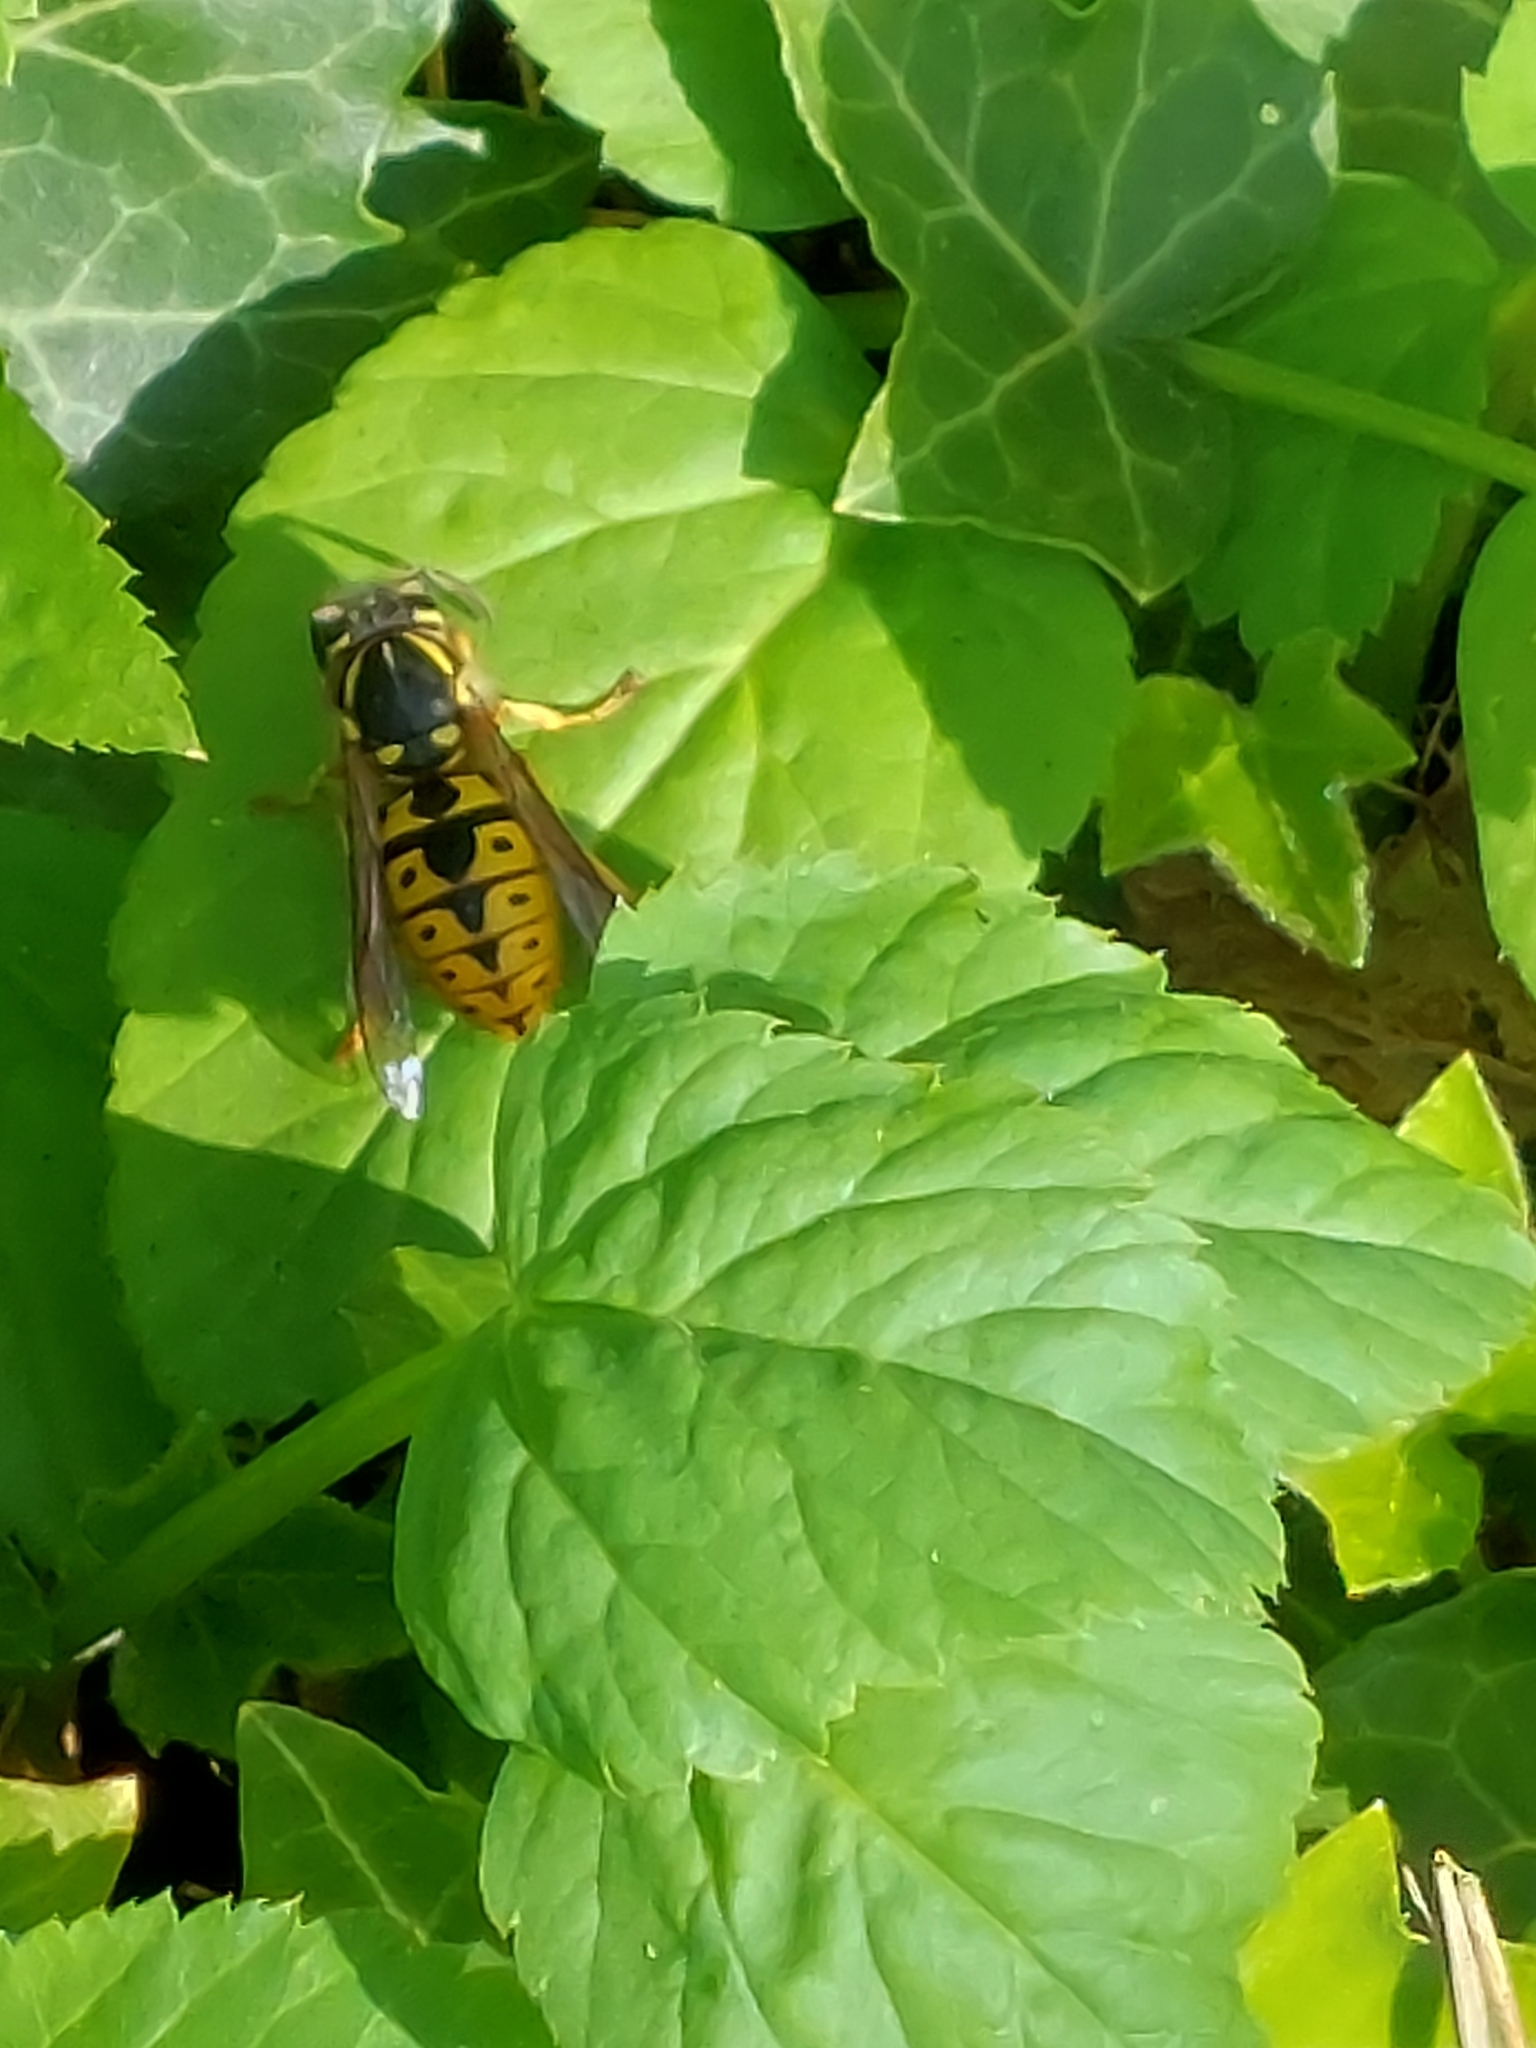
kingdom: Animalia
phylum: Arthropoda
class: Insecta
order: Hymenoptera
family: Vespidae
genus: Vespula
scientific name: Vespula germanica
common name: German wasp
